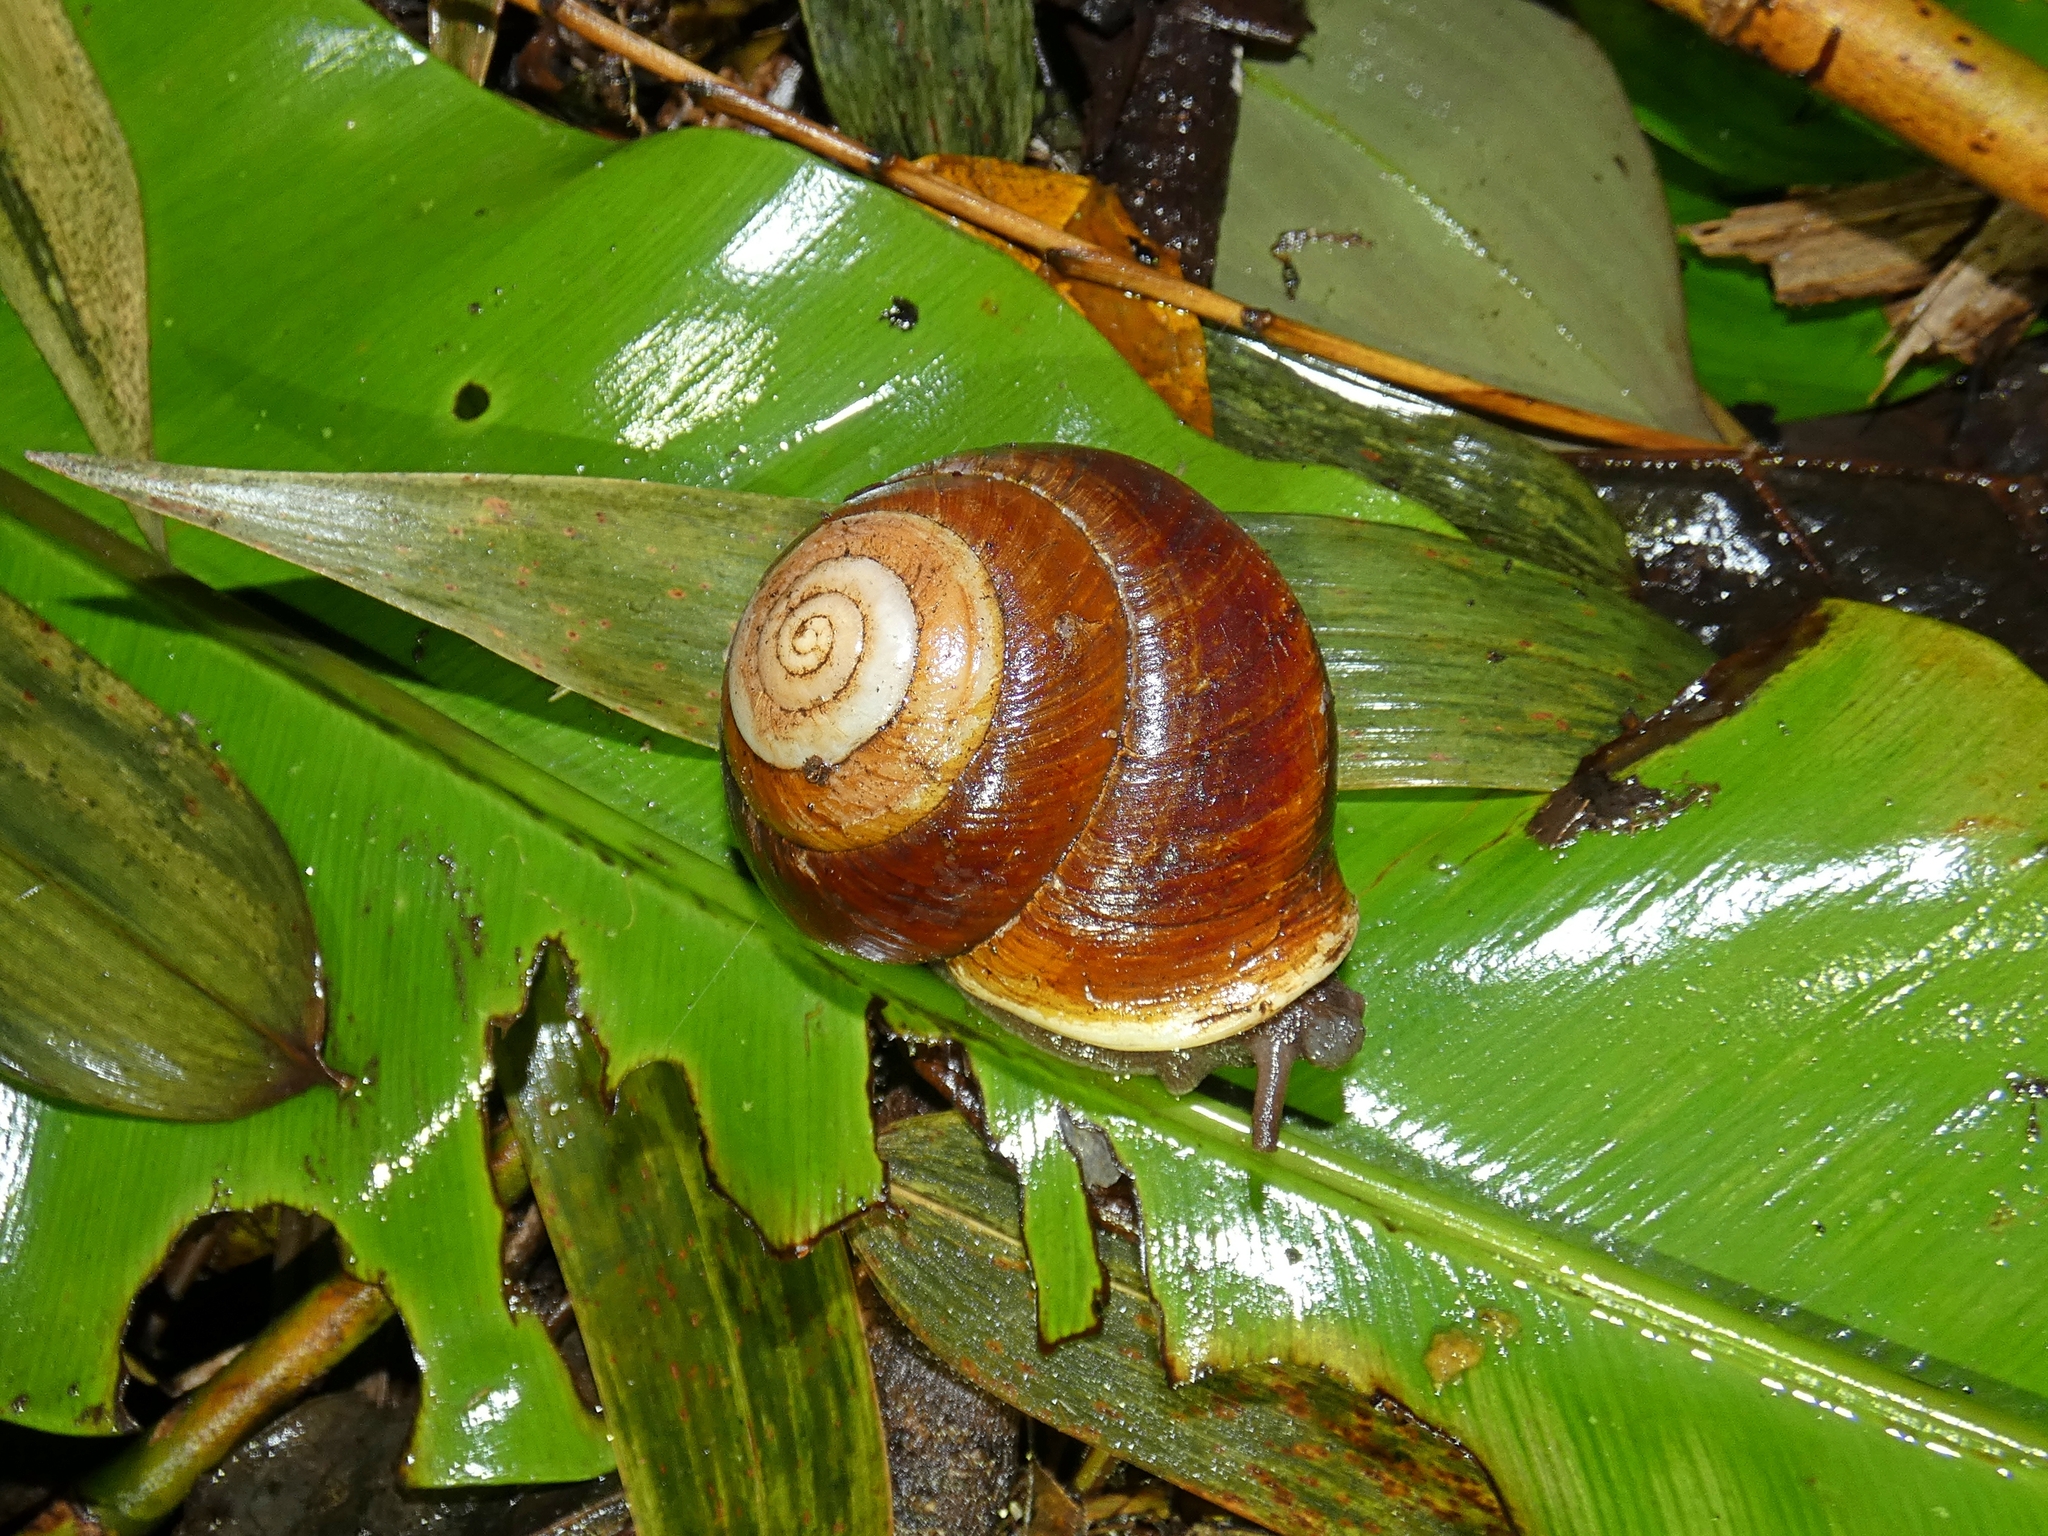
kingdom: Animalia
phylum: Mollusca
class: Gastropoda
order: Stylommatophora
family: Camaenidae
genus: Hadra
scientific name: Hadra bipartita
